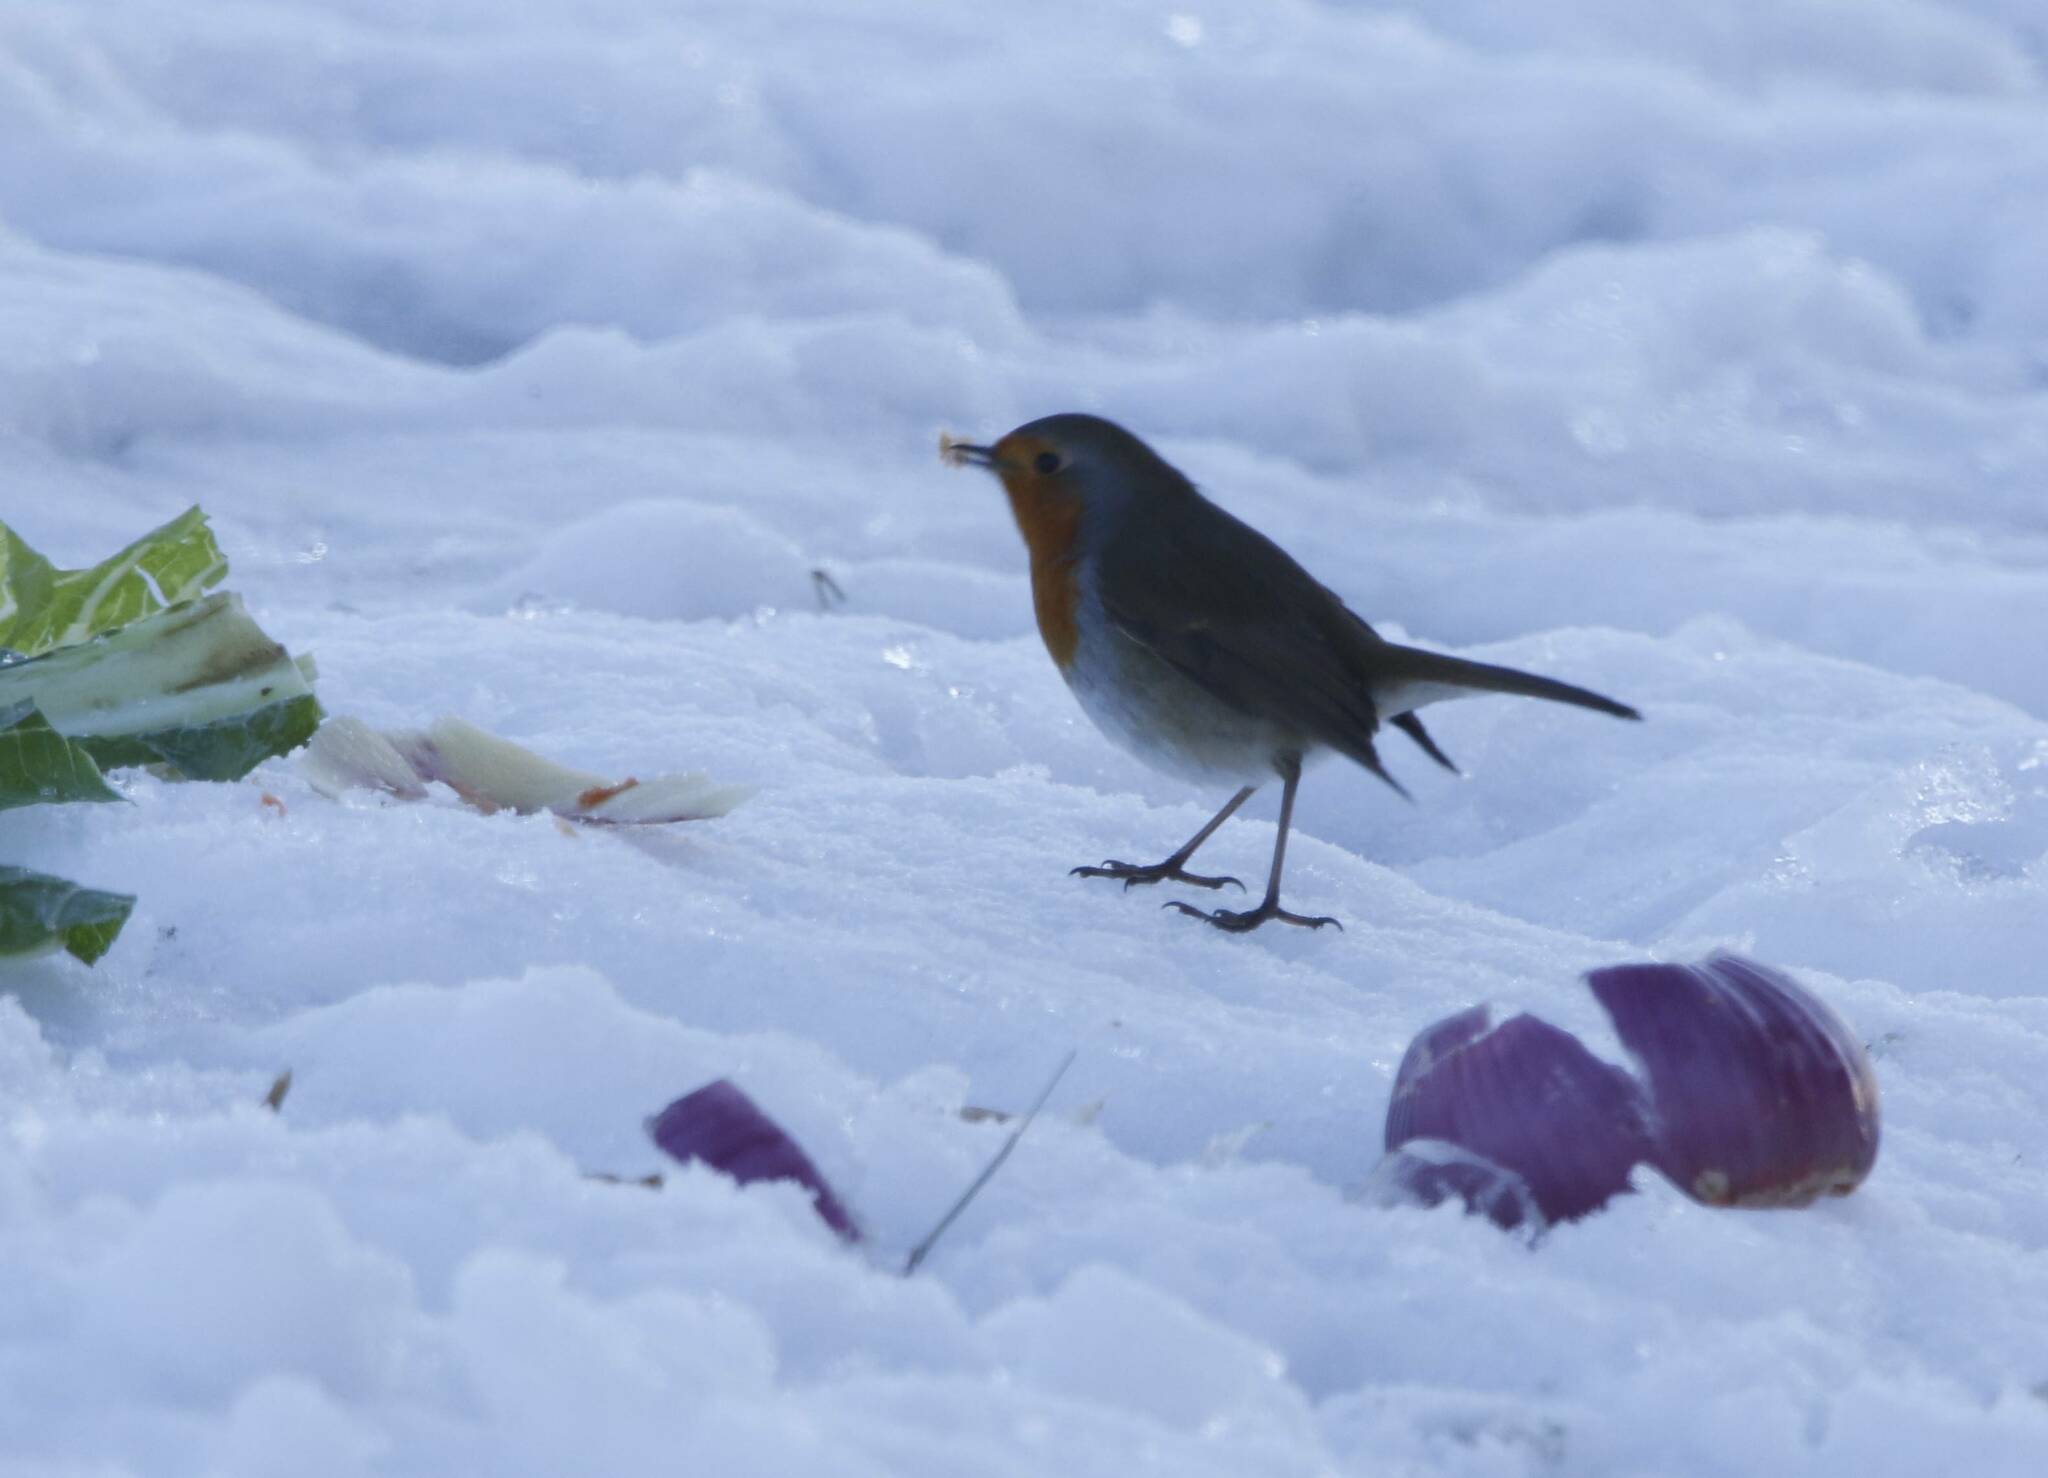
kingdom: Animalia
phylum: Chordata
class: Aves
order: Passeriformes
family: Muscicapidae
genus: Erithacus
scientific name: Erithacus rubecula
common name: European robin
